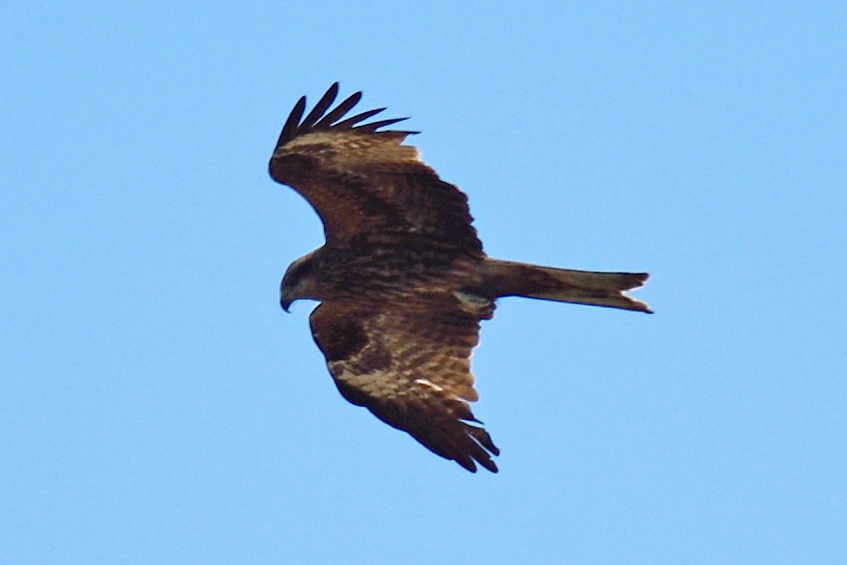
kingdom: Animalia
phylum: Chordata
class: Aves
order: Accipitriformes
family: Accipitridae
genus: Milvus
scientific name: Milvus migrans
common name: Black kite
